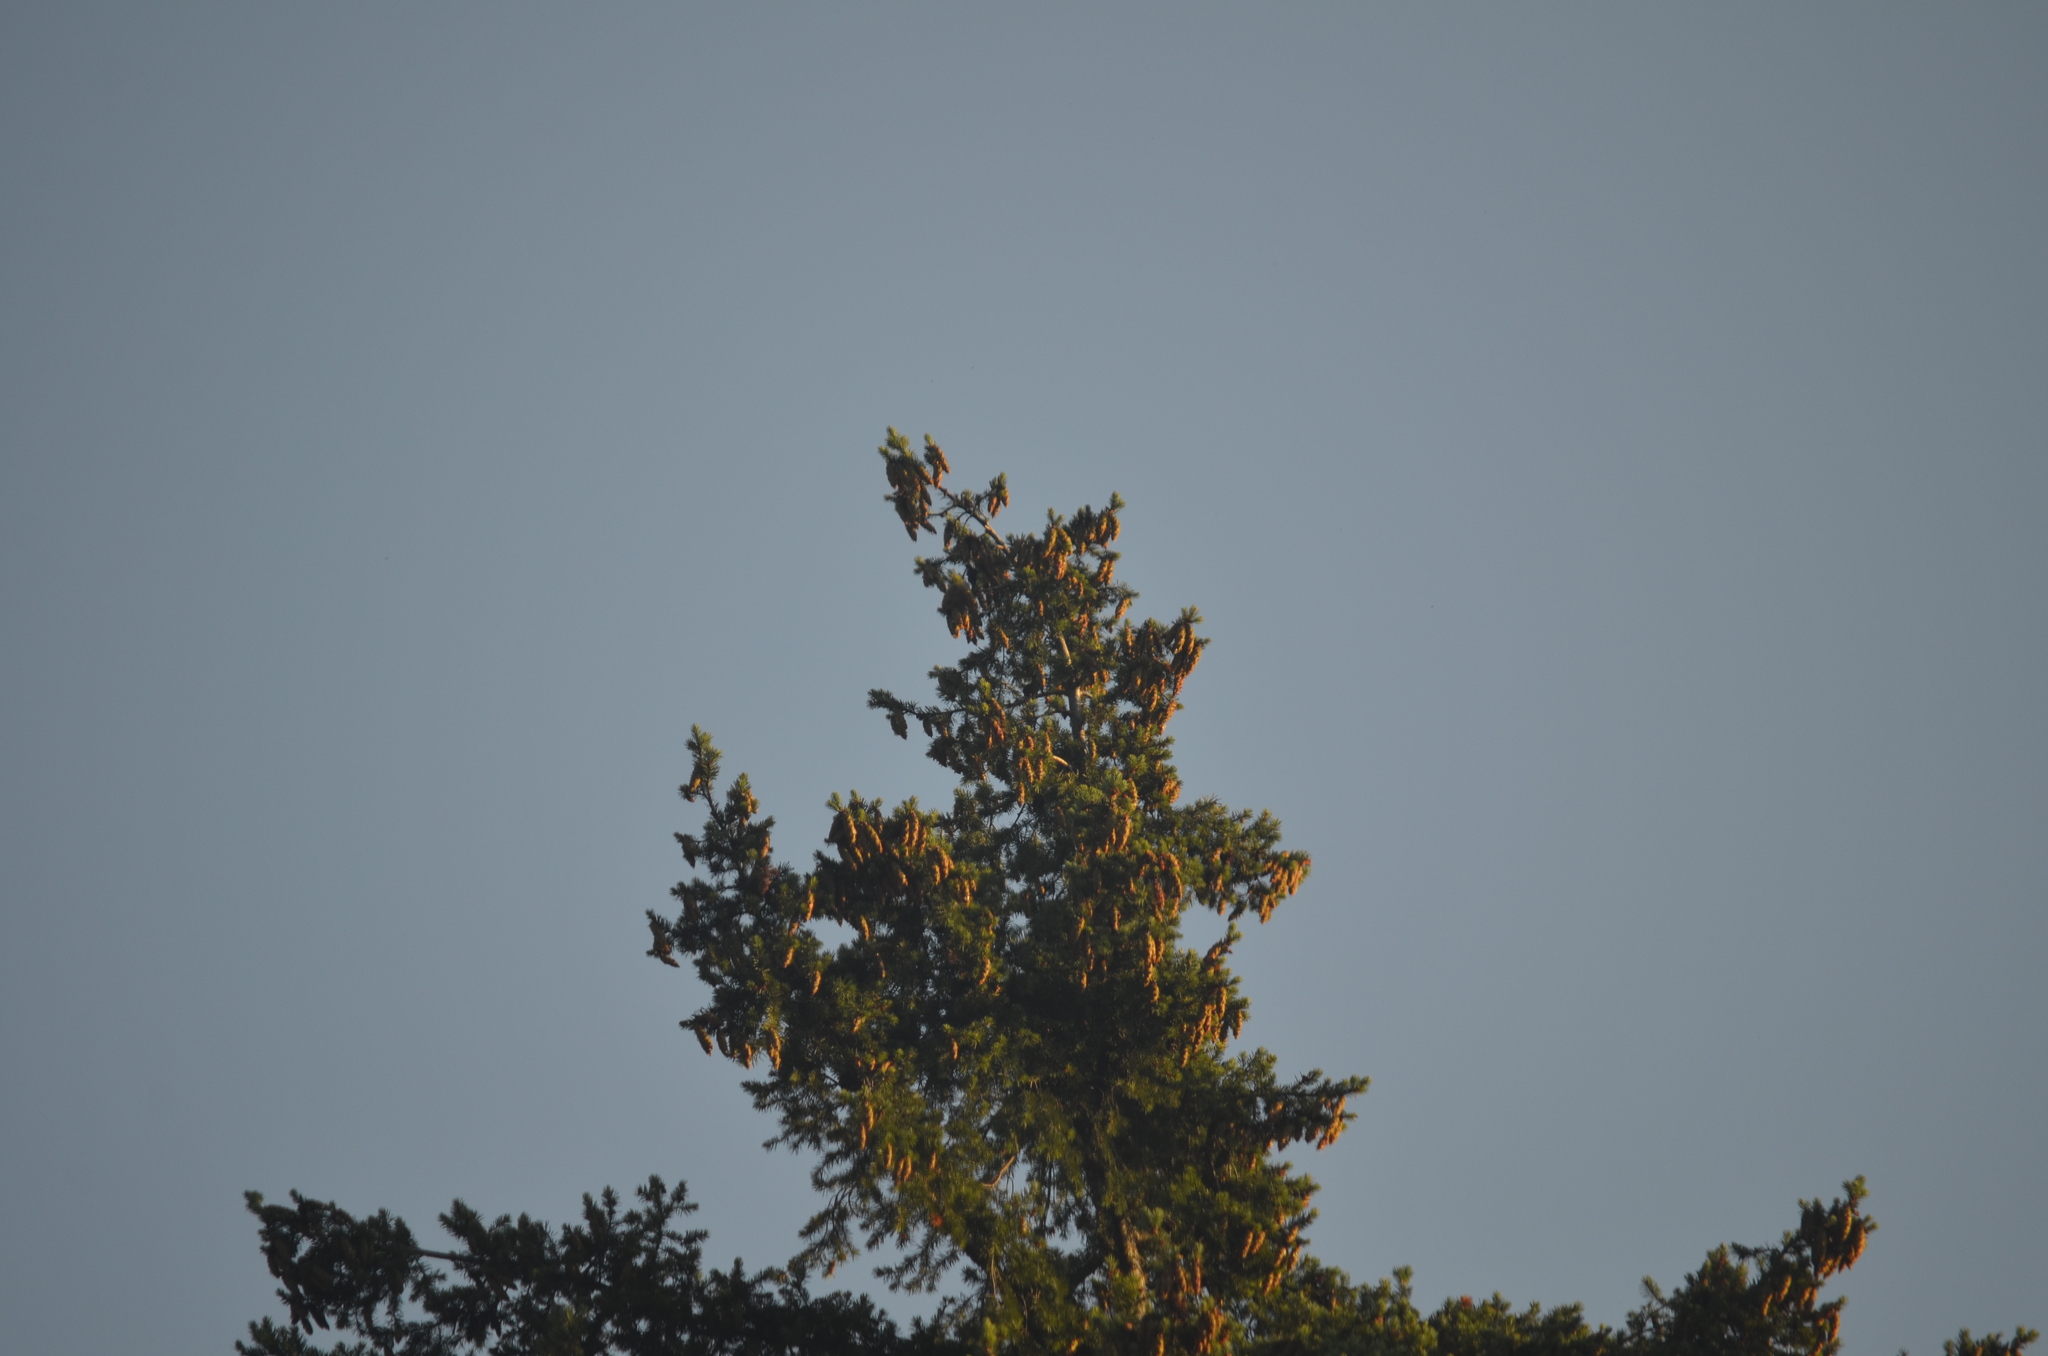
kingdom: Plantae
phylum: Tracheophyta
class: Pinopsida
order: Pinales
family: Pinaceae
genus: Pseudotsuga
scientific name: Pseudotsuga menziesii
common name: Douglas fir
